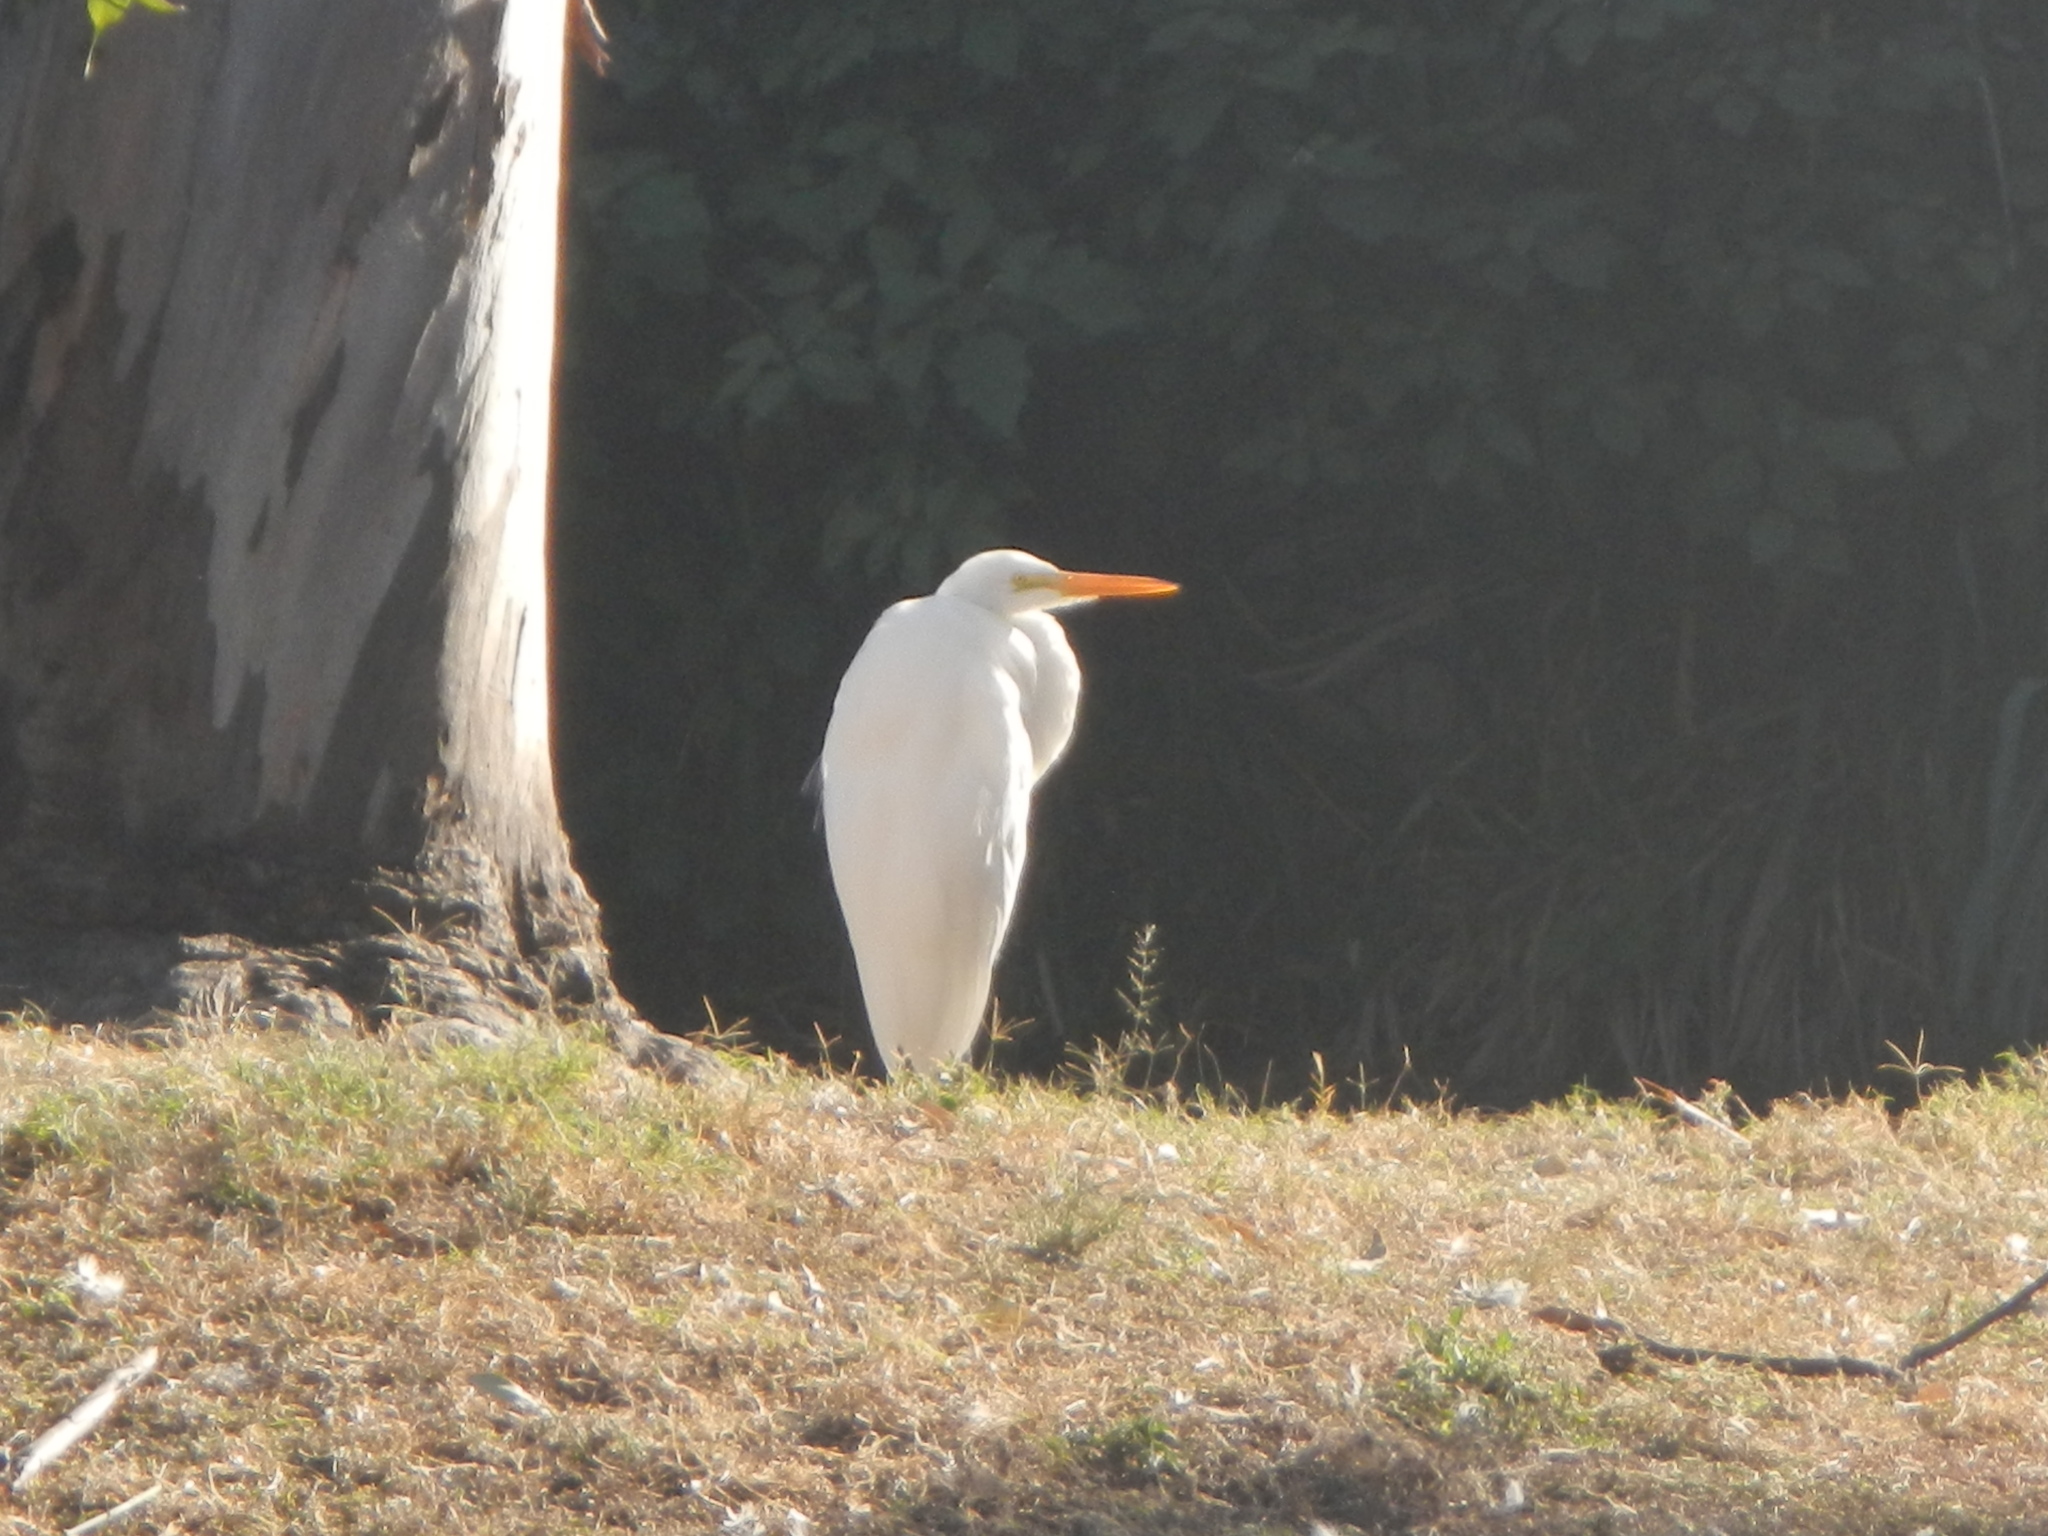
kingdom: Animalia
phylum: Chordata
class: Aves
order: Pelecaniformes
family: Ardeidae
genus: Ardea
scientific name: Ardea alba
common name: Great egret
